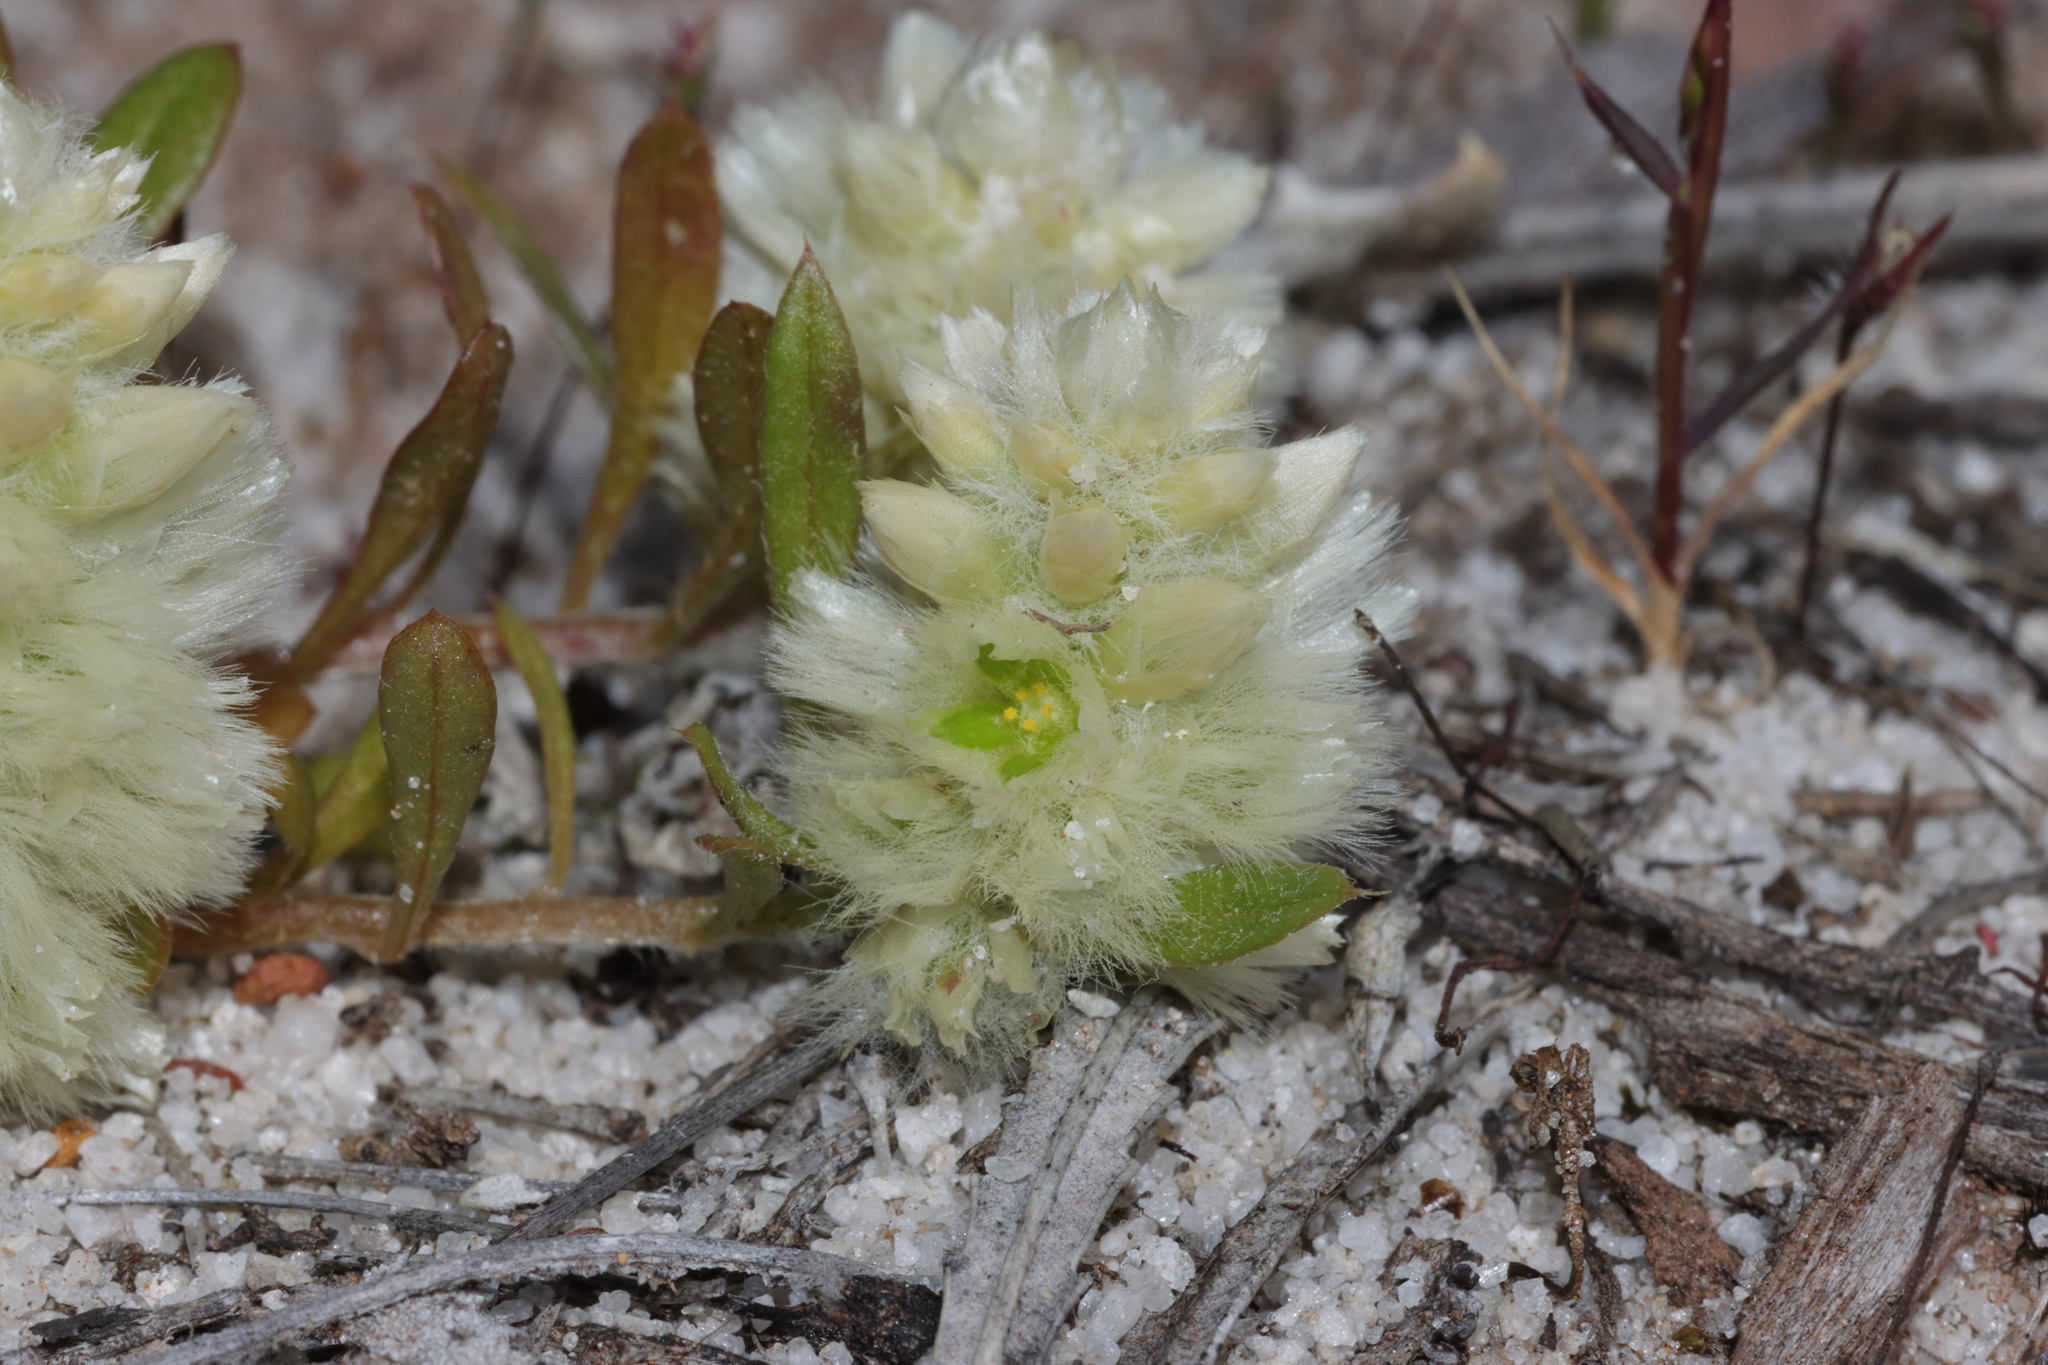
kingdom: Plantae
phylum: Tracheophyta
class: Magnoliopsida
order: Caryophyllales
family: Amaranthaceae
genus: Ptilotus
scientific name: Ptilotus humilis
